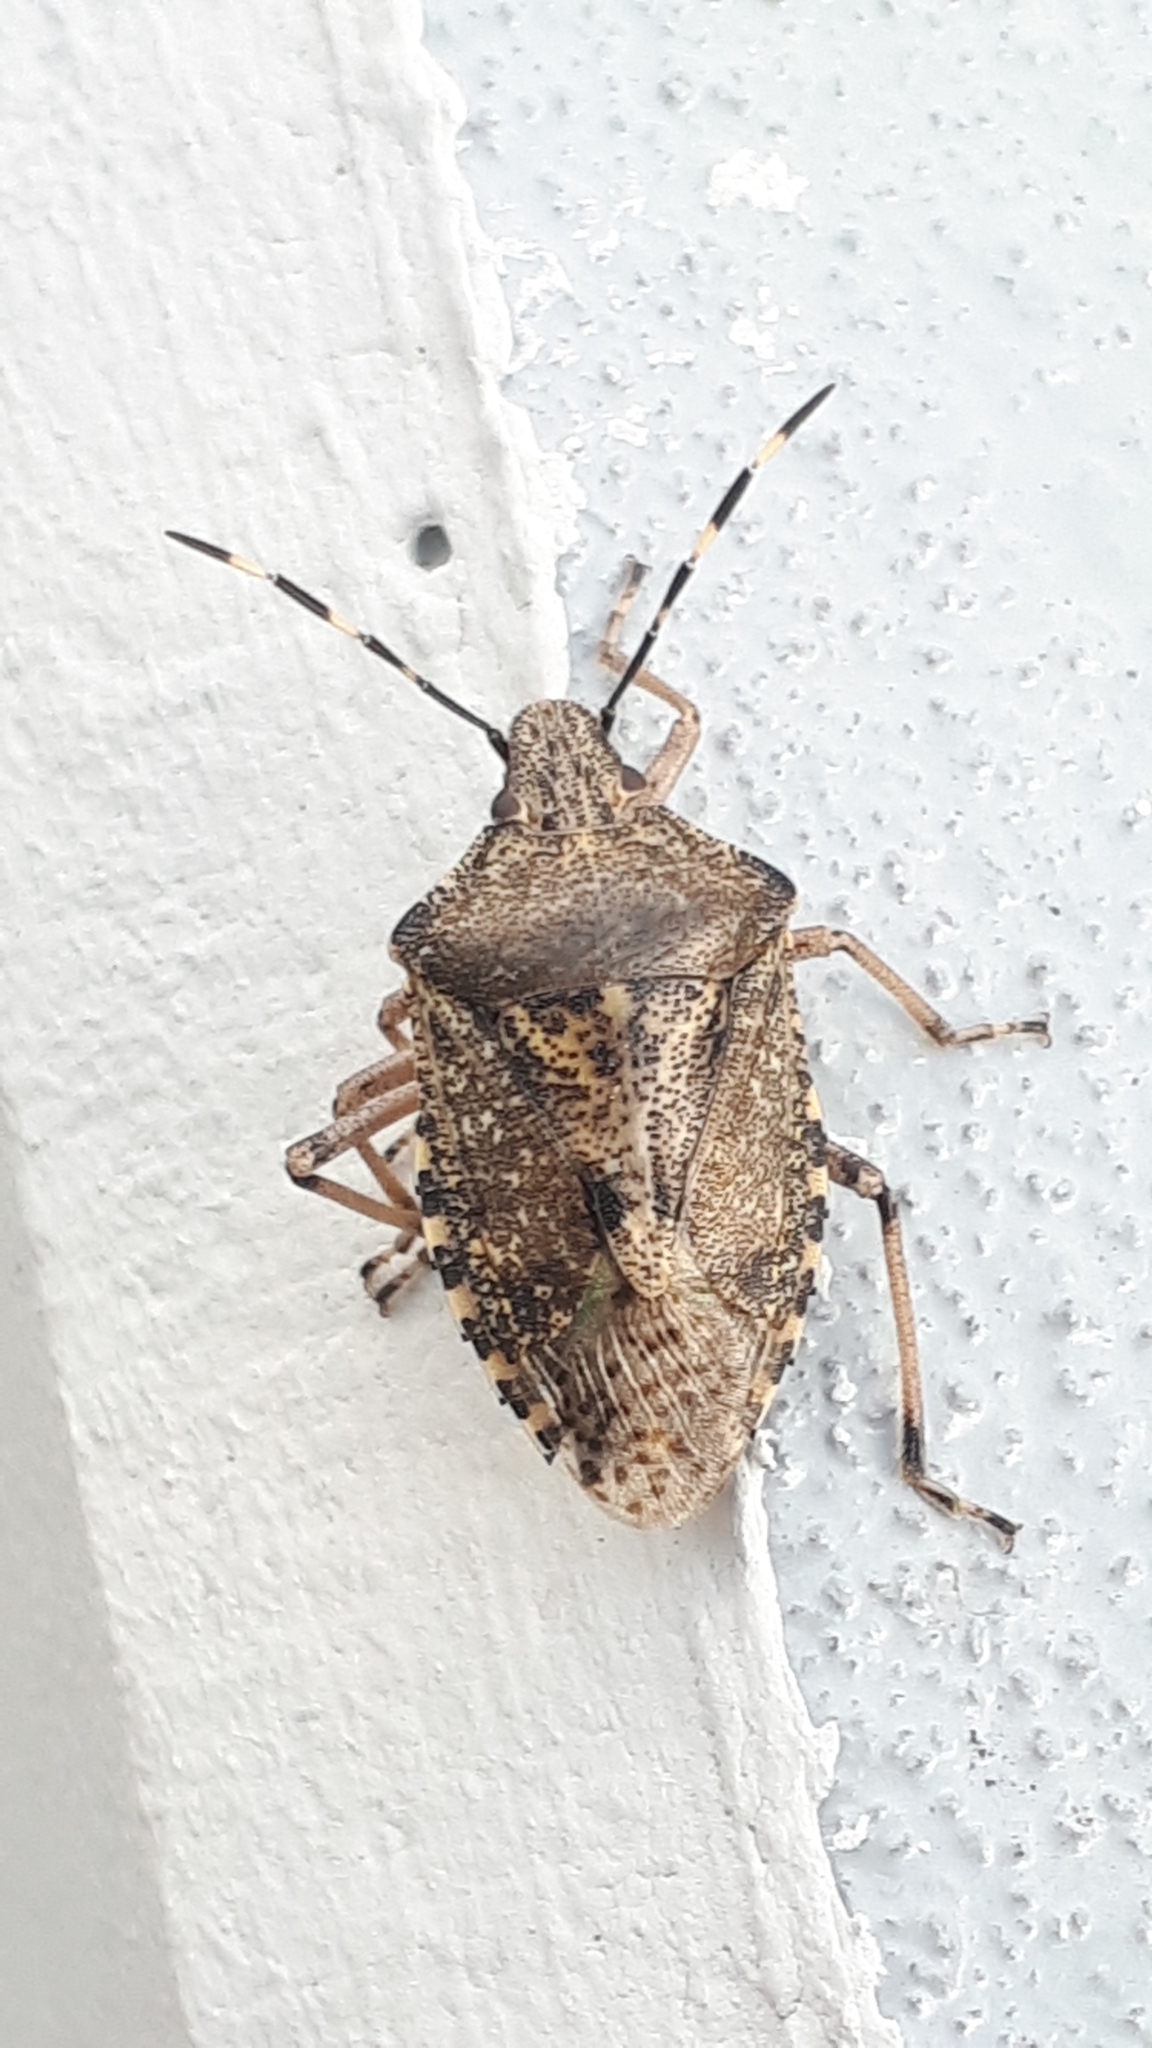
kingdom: Animalia
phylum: Arthropoda
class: Insecta
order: Hemiptera
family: Pentatomidae
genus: Rhaphigaster
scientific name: Rhaphigaster nebulosa
